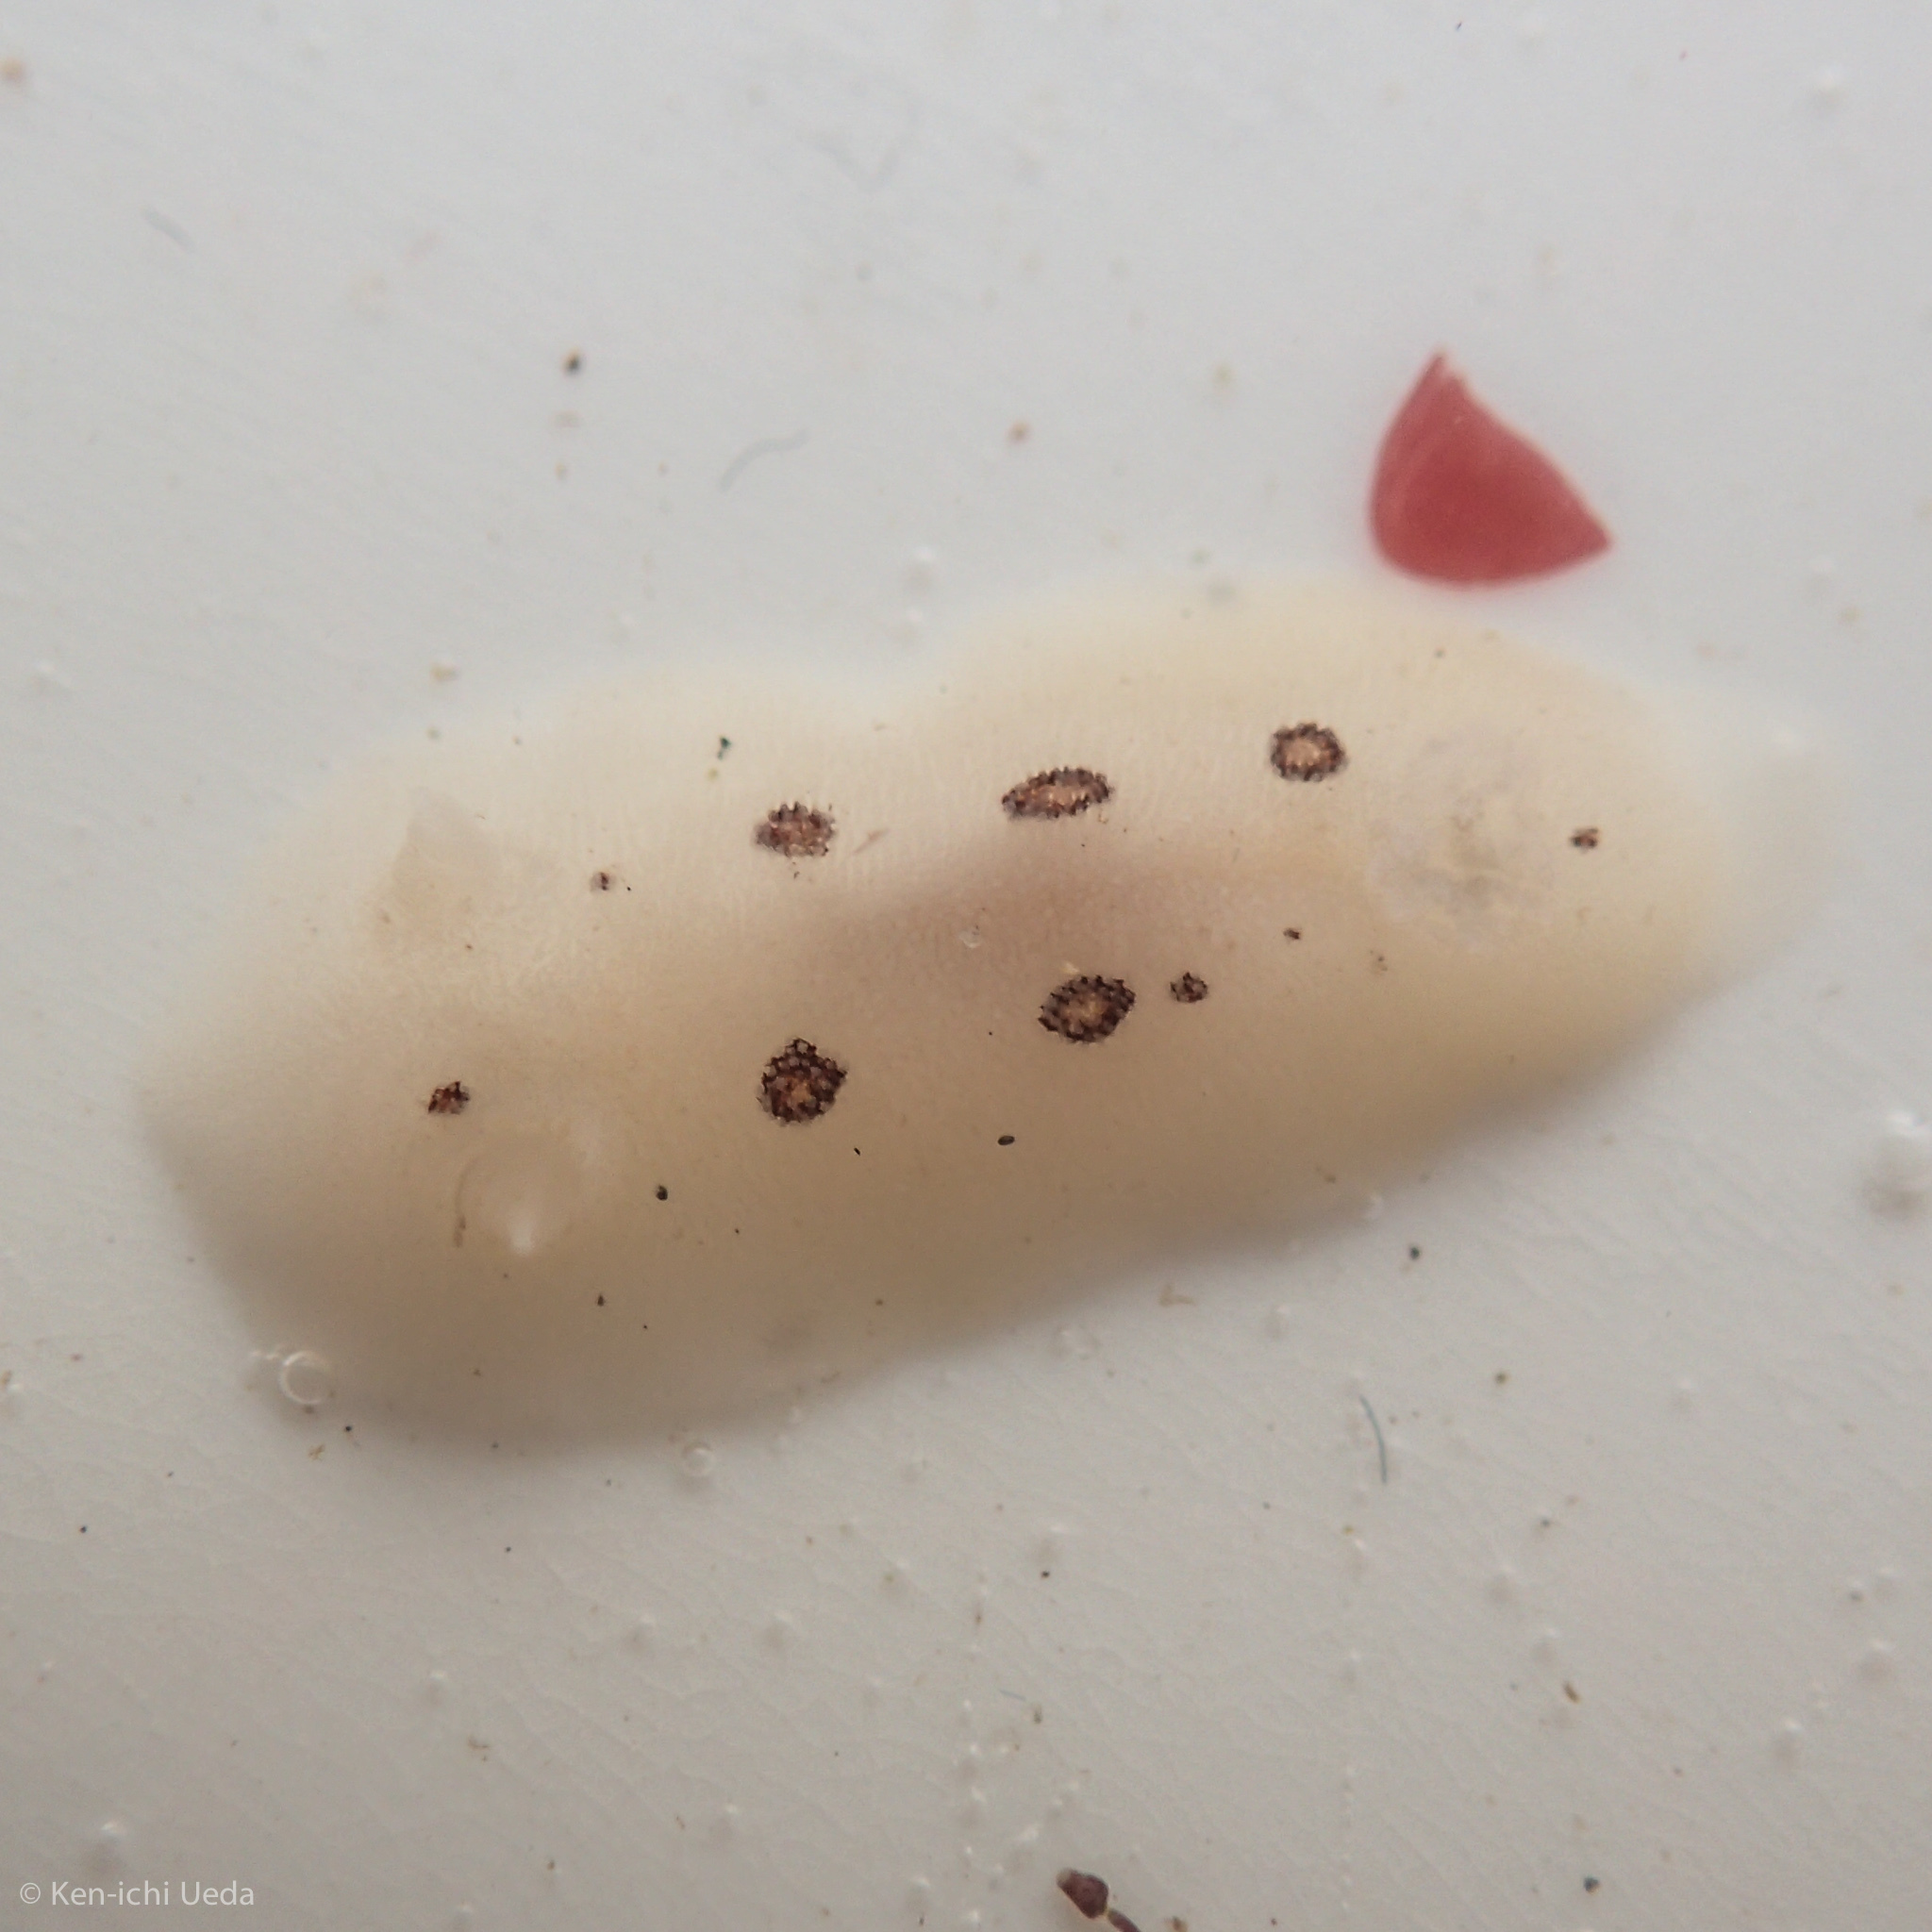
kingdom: Animalia
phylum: Mollusca
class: Gastropoda
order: Nudibranchia
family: Discodorididae
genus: Diaulula
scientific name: Diaulula sandiegensis
